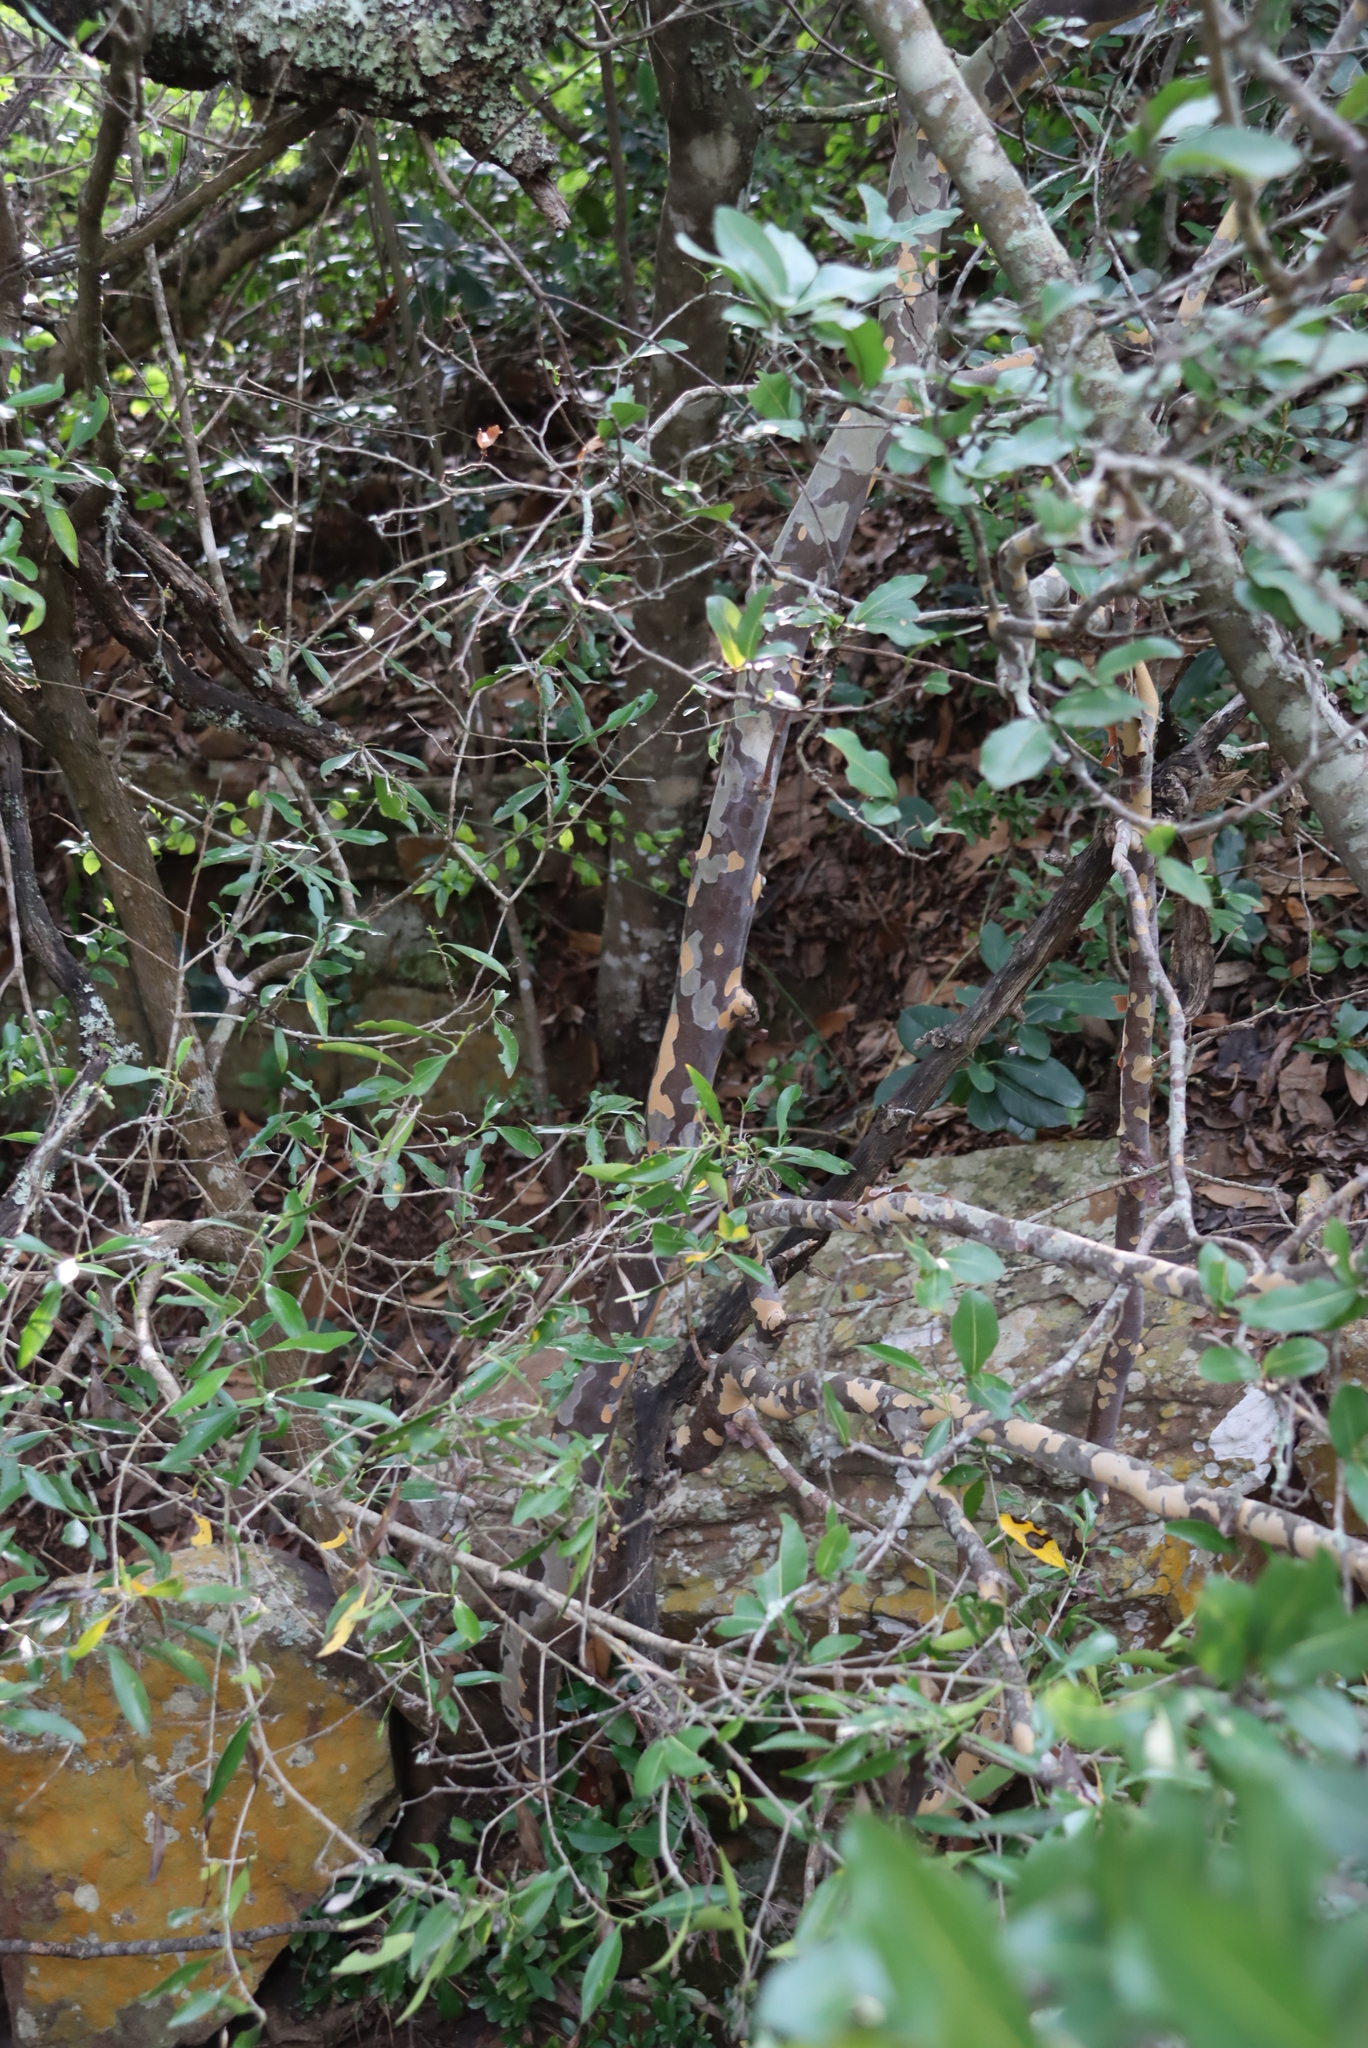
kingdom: Plantae
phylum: Tracheophyta
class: Magnoliopsida
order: Malpighiales
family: Ochnaceae
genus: Ochna
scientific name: Ochna arborea
